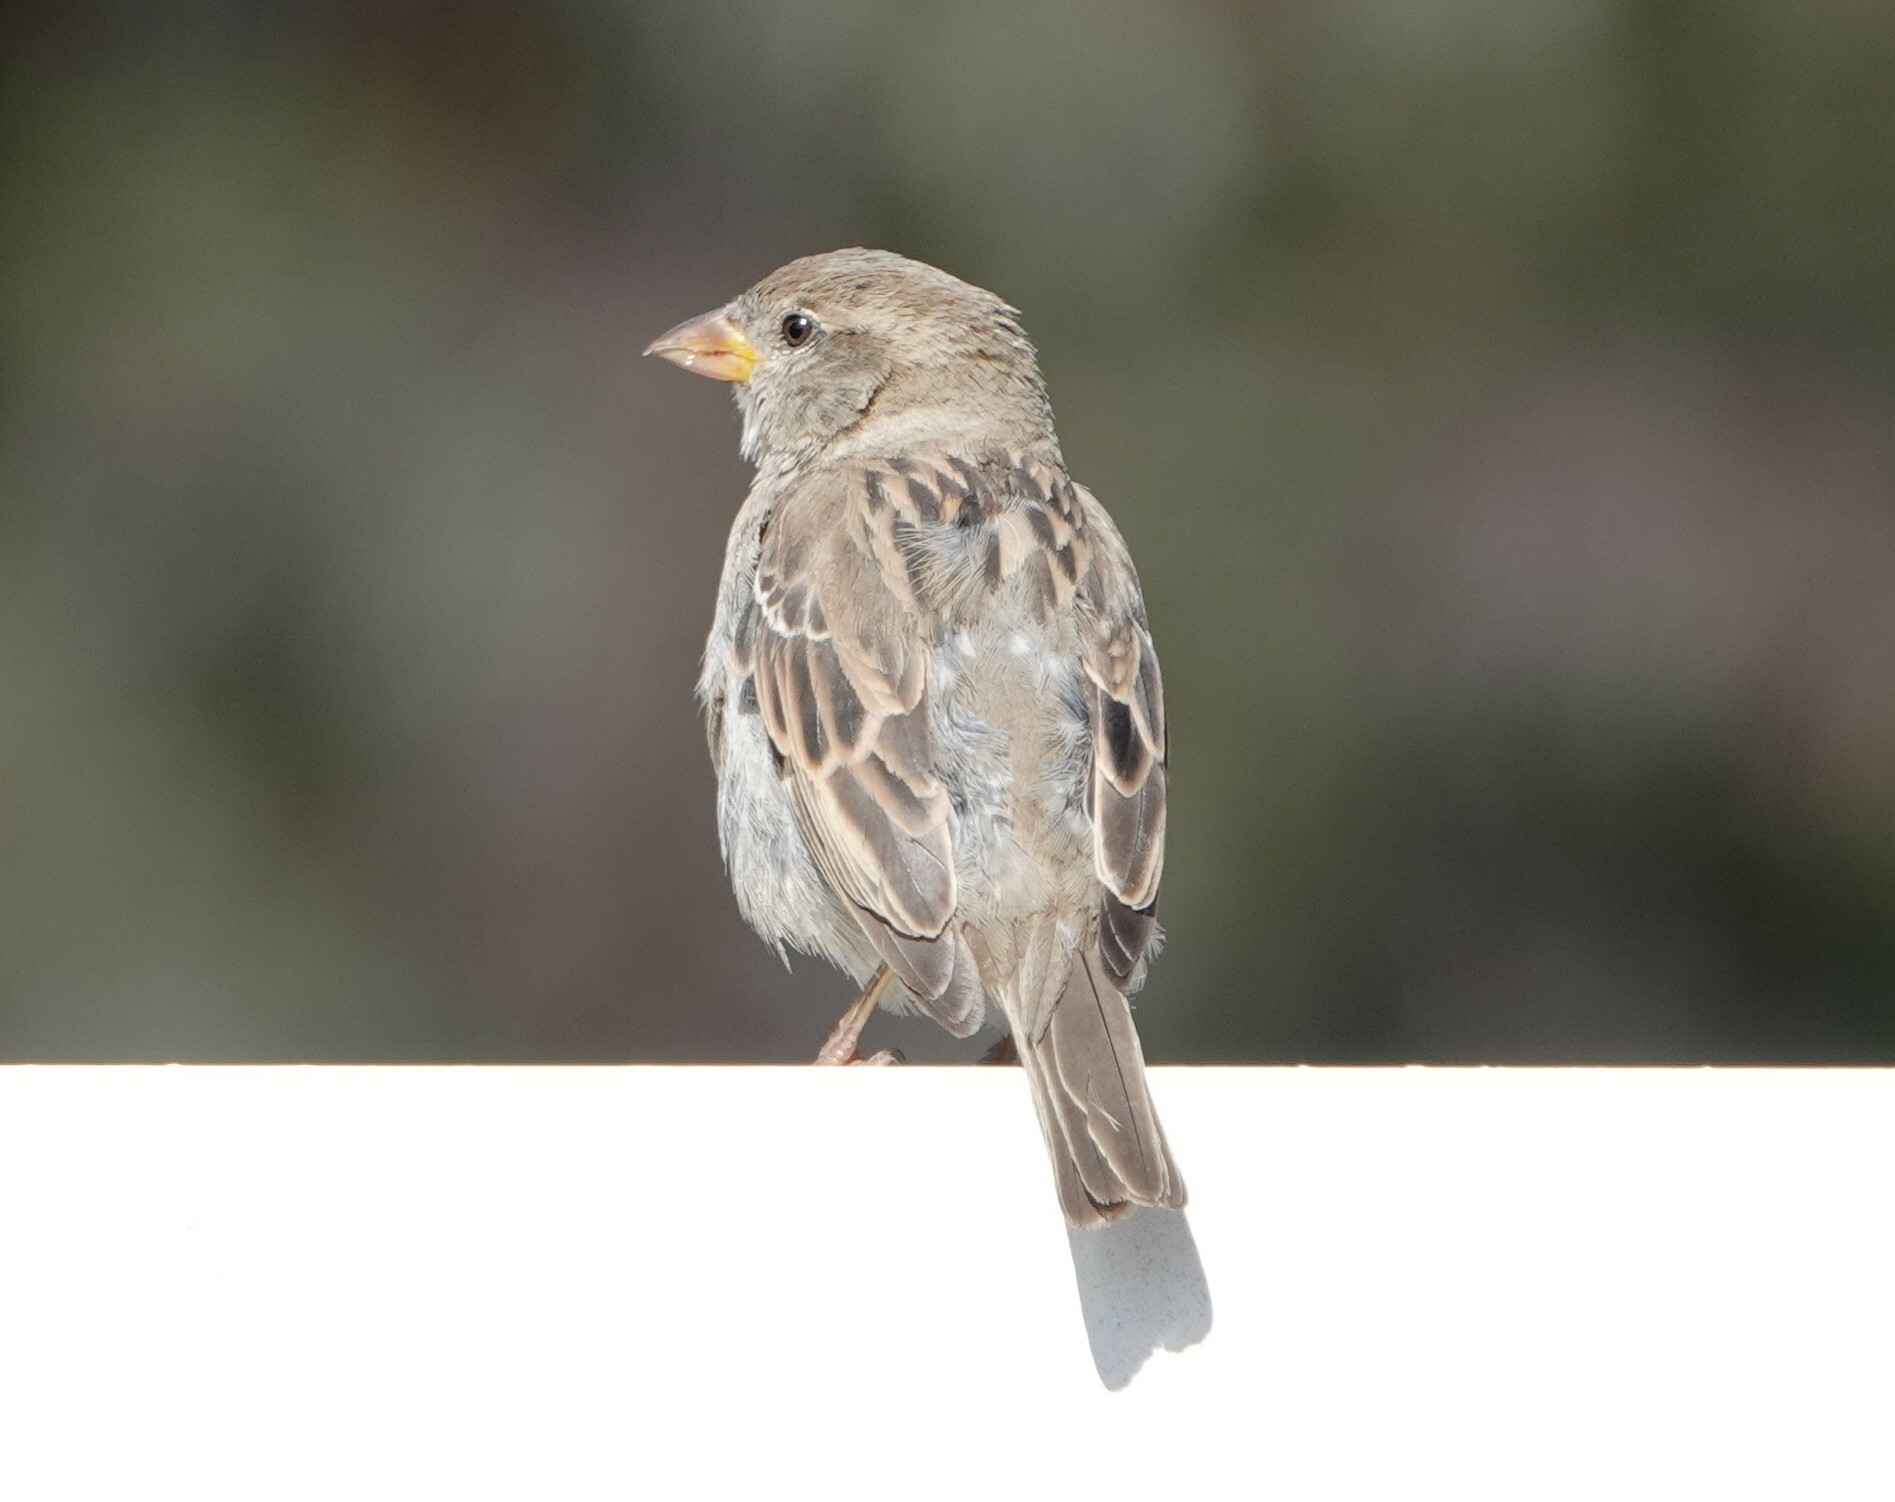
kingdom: Animalia
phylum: Chordata
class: Aves
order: Passeriformes
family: Passeridae
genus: Passer
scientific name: Passer domesticus
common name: House sparrow
